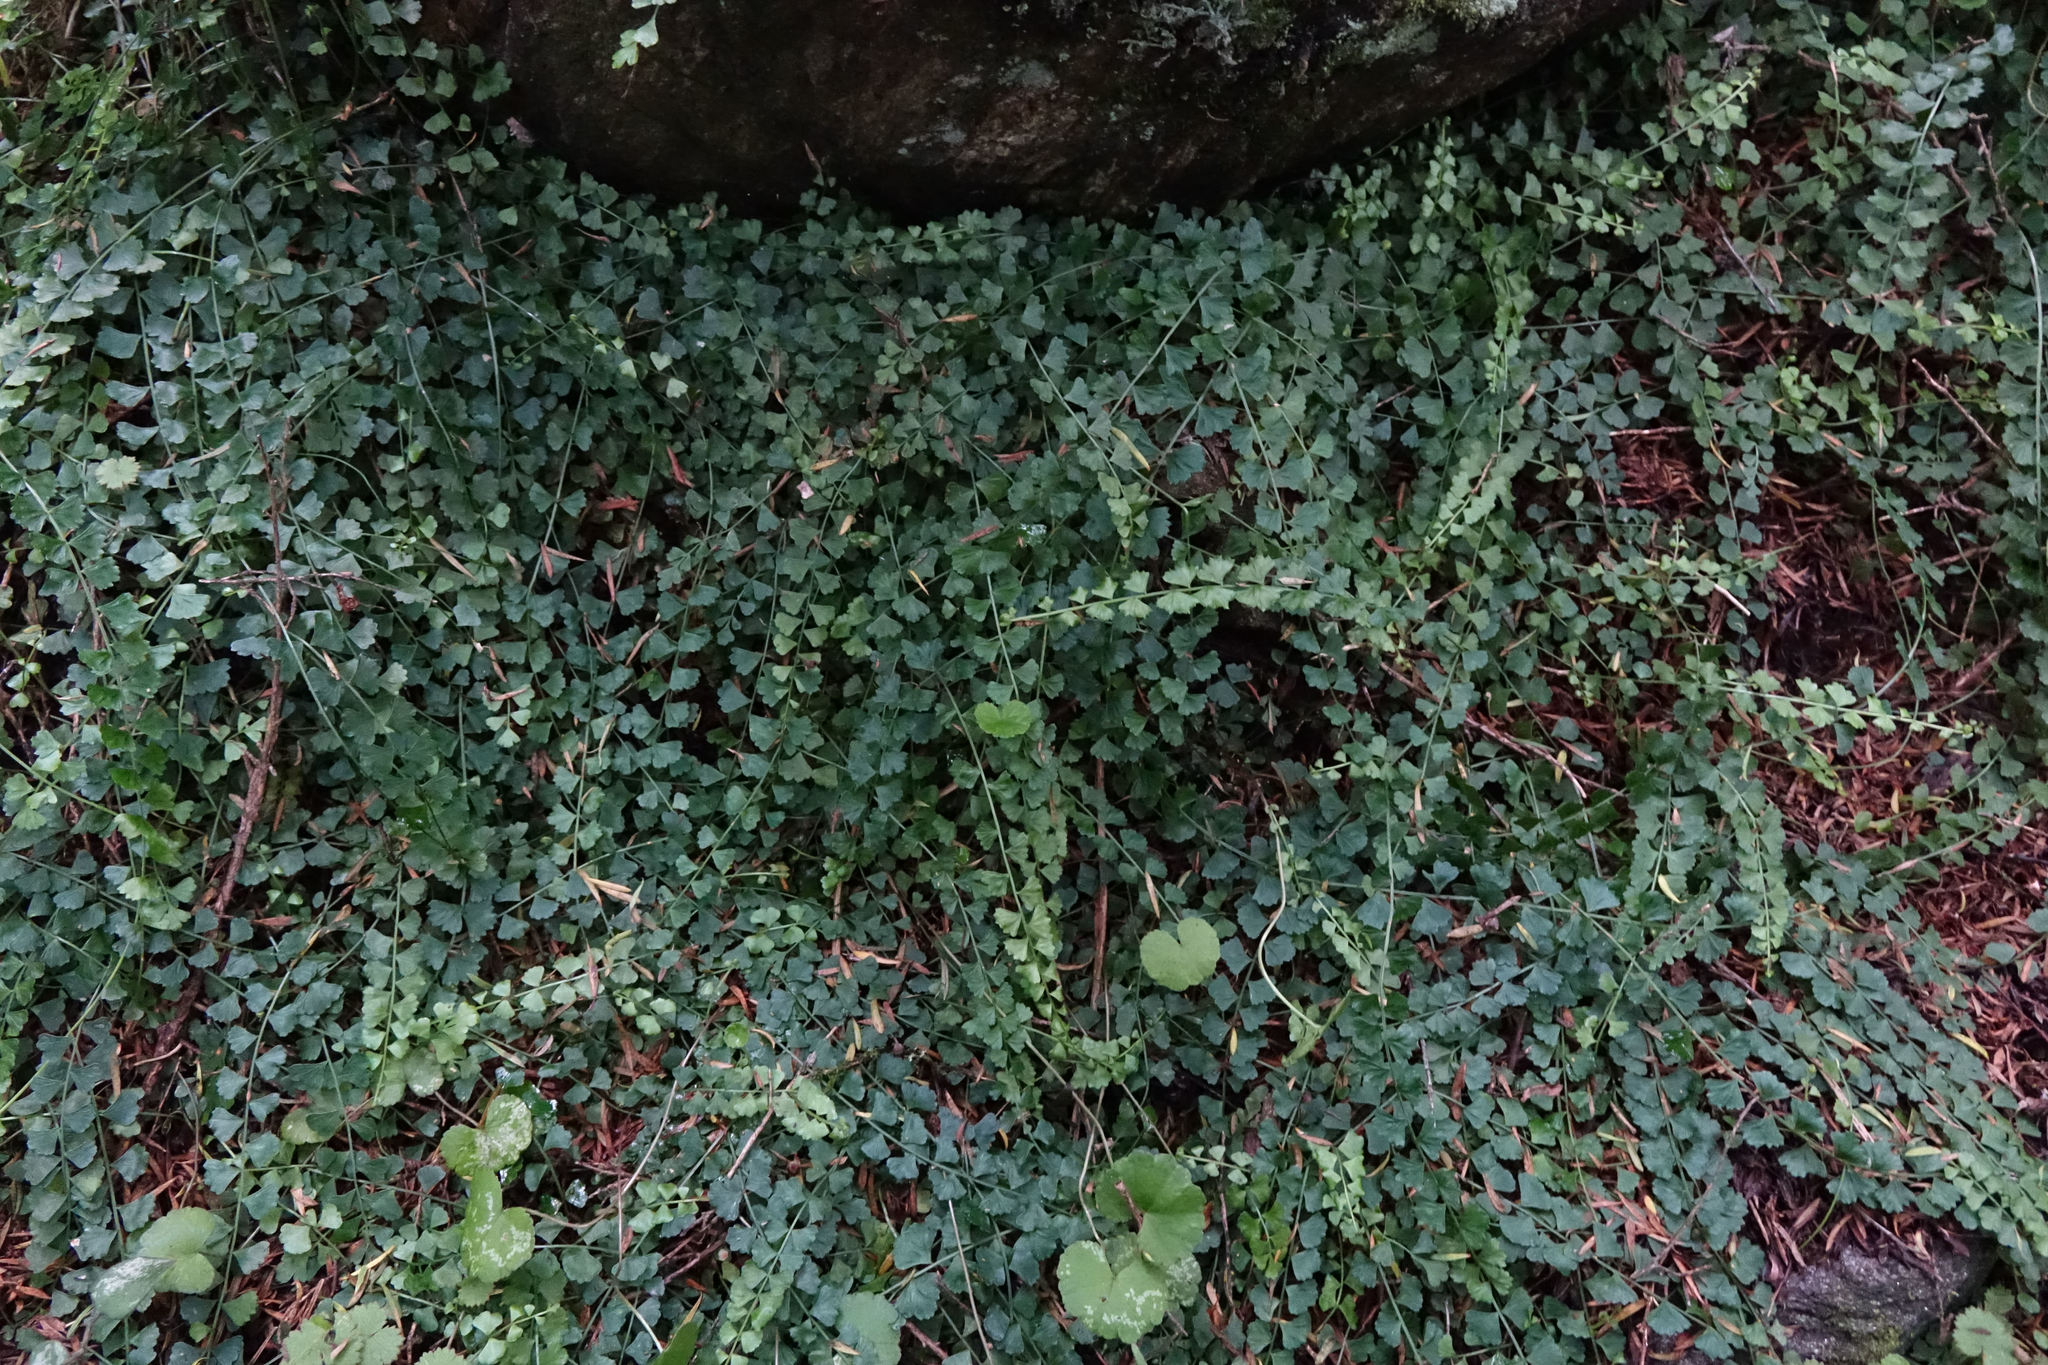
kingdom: Plantae
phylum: Tracheophyta
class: Polypodiopsida
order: Polypodiales
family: Aspleniaceae
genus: Asplenium
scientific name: Asplenium flabellifolium
